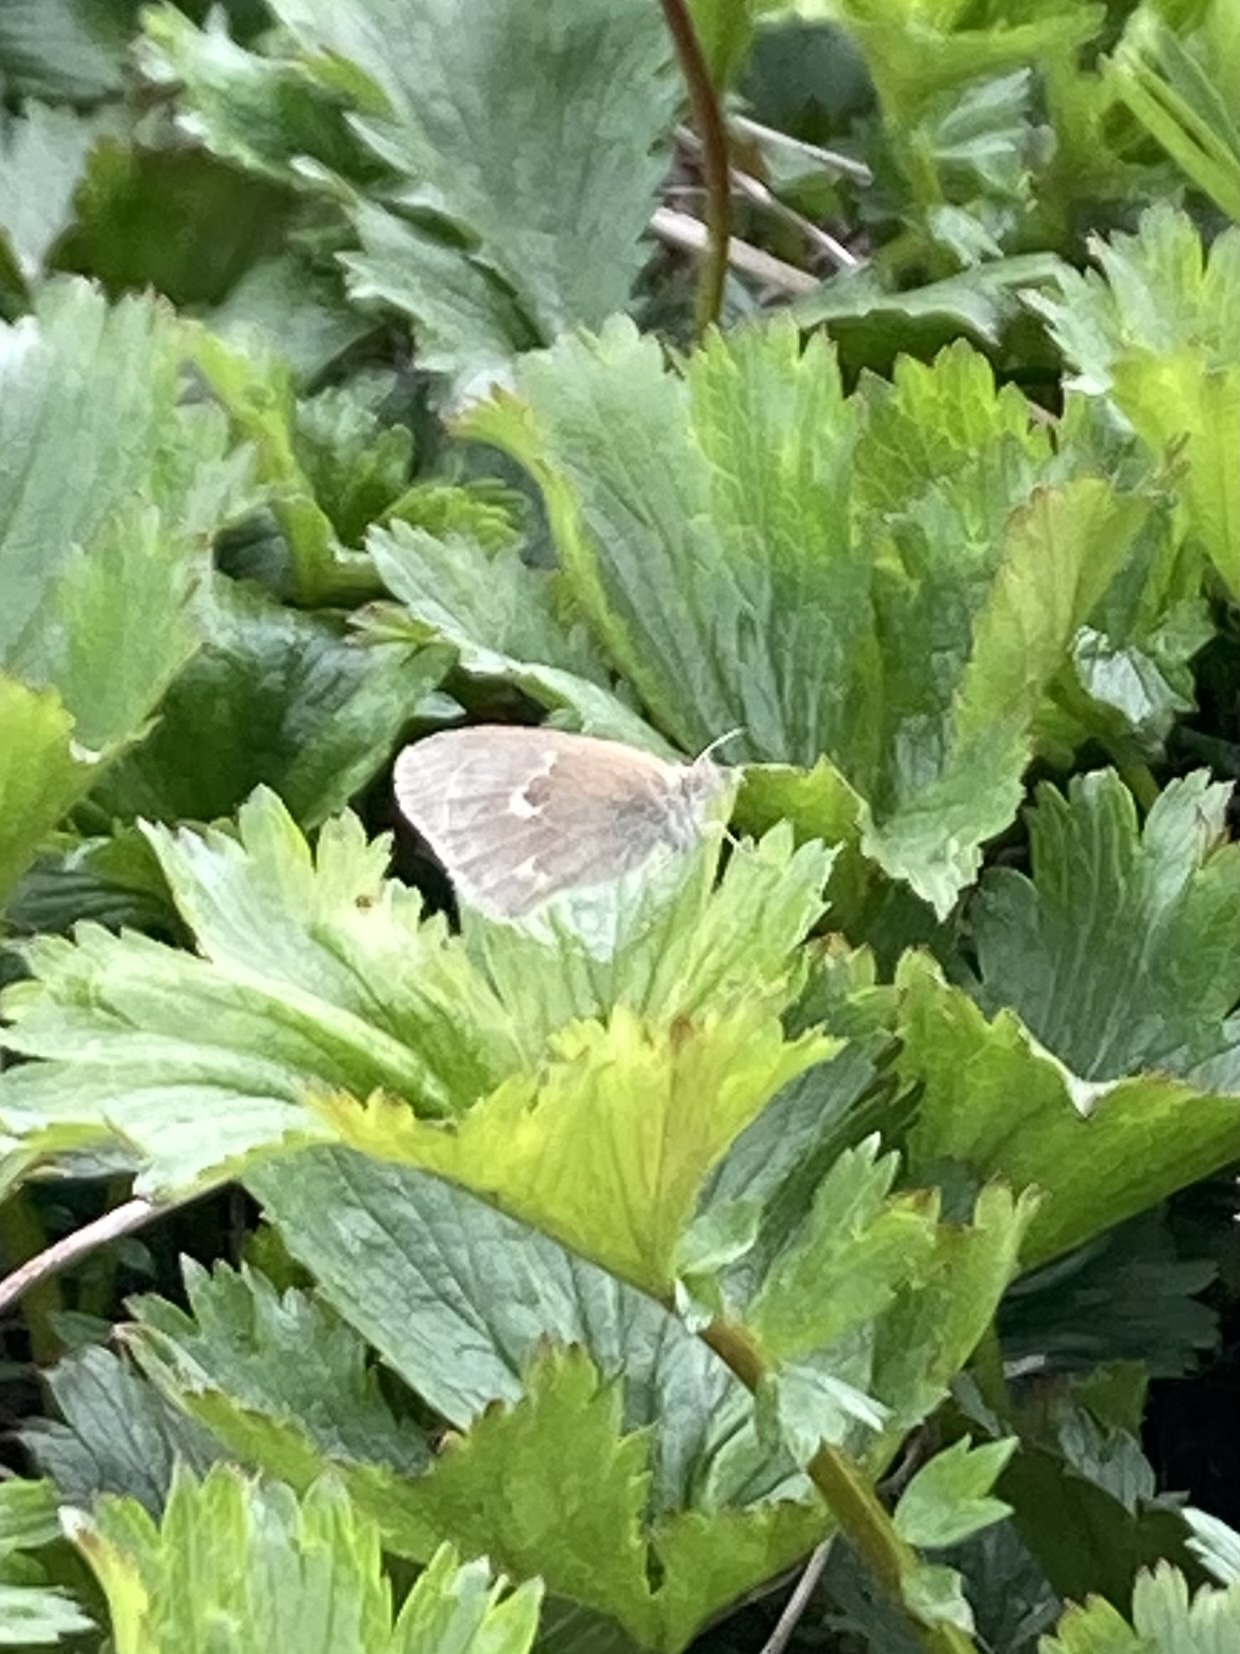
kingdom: Animalia
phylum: Arthropoda
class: Insecta
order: Lepidoptera
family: Nymphalidae
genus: Coenonympha
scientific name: Coenonympha california
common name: Common ringlet
